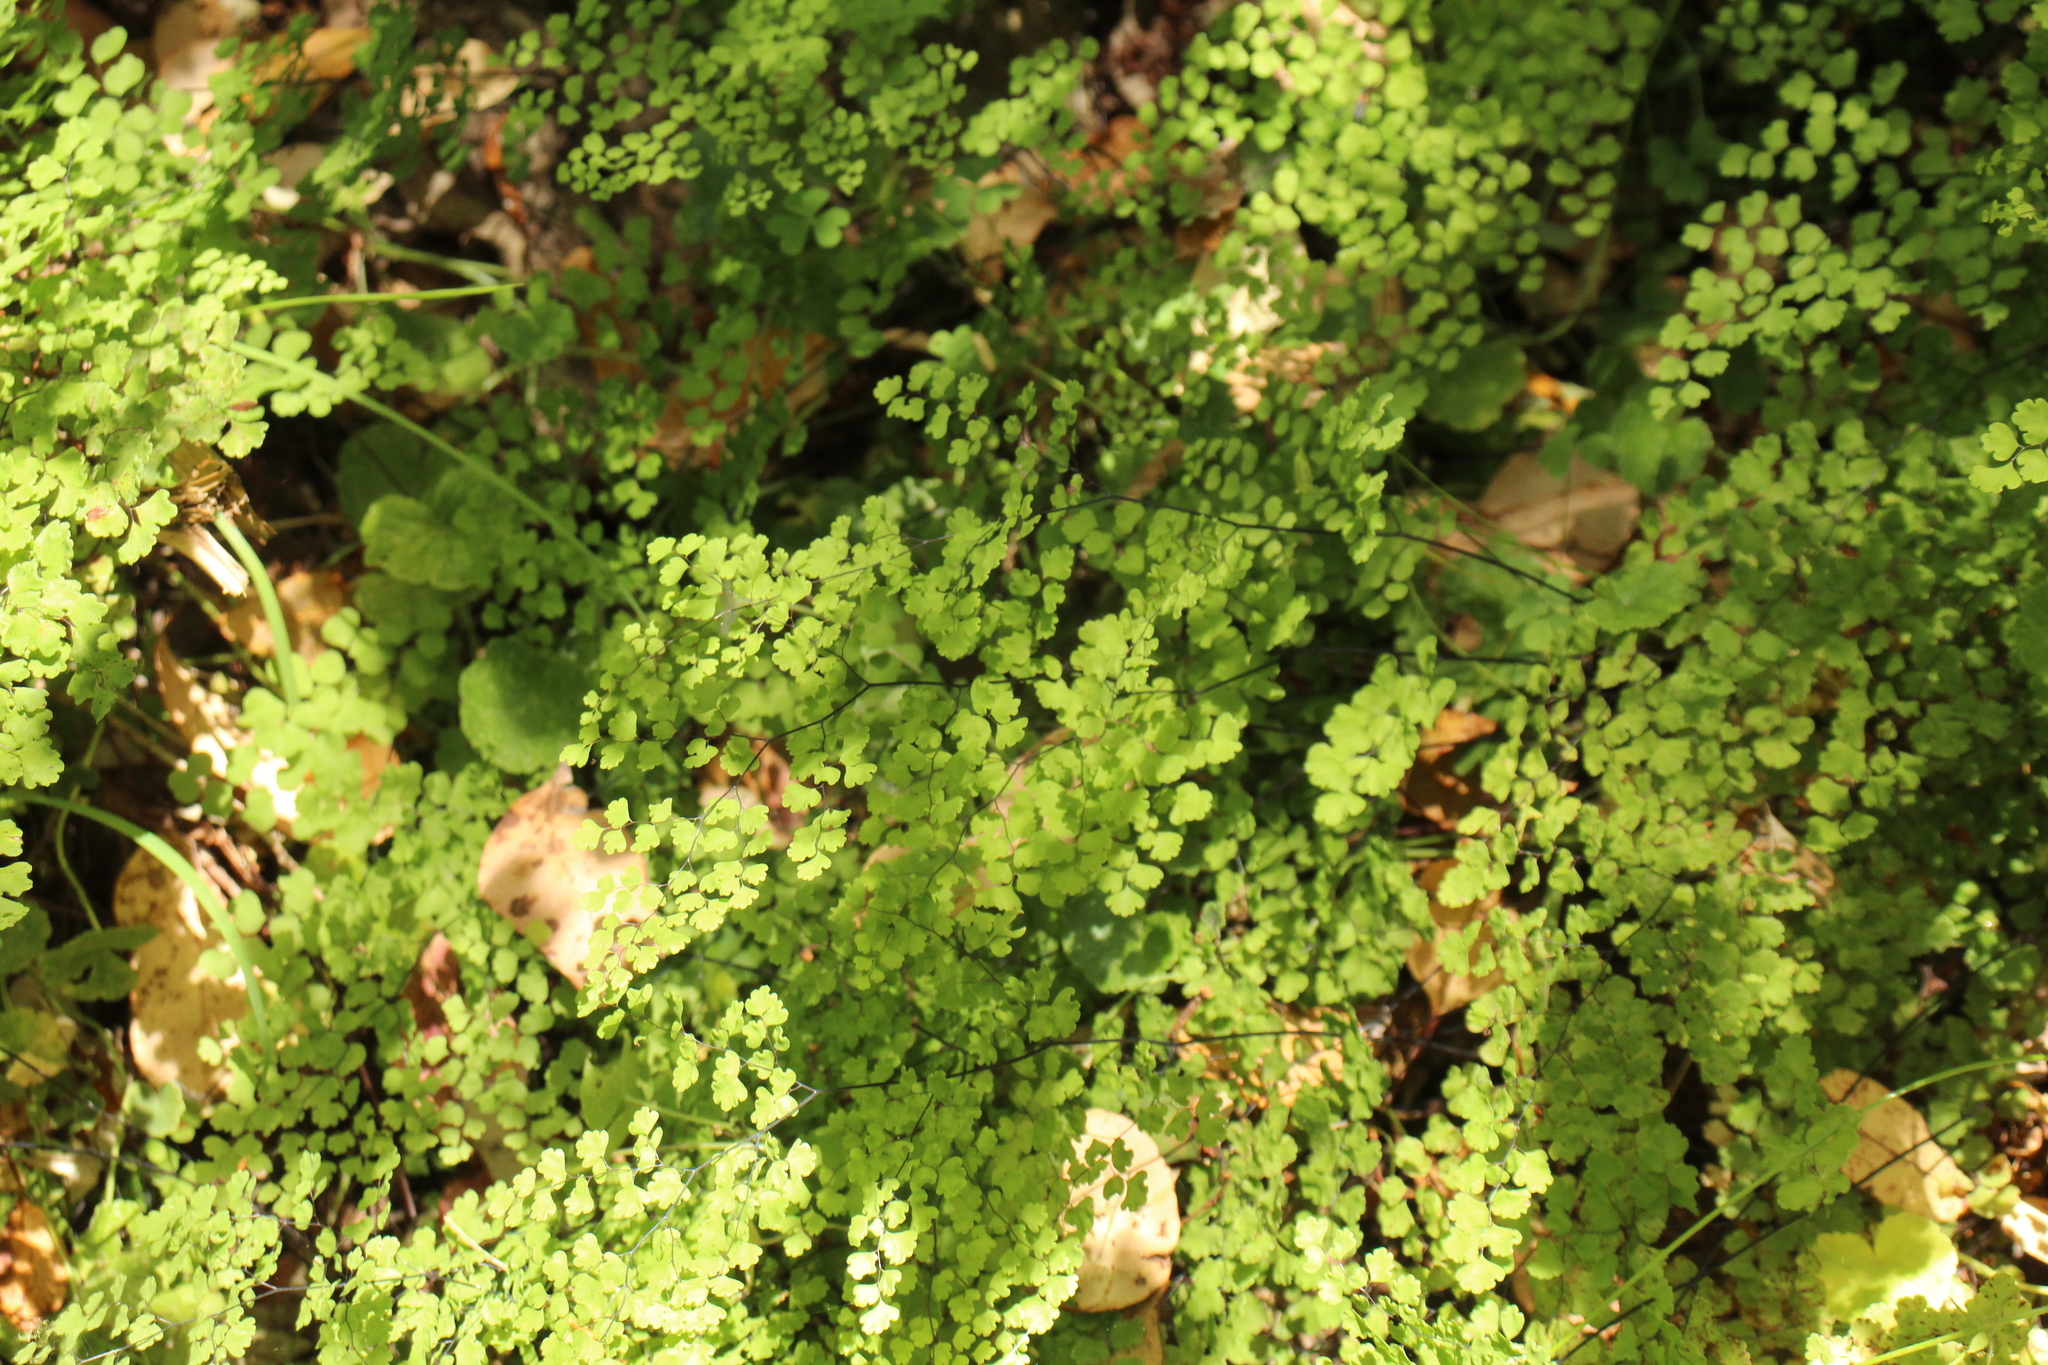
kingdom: Plantae
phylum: Tracheophyta
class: Polypodiopsida
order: Polypodiales
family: Pteridaceae
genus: Adiantum
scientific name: Adiantum aethiopicum
